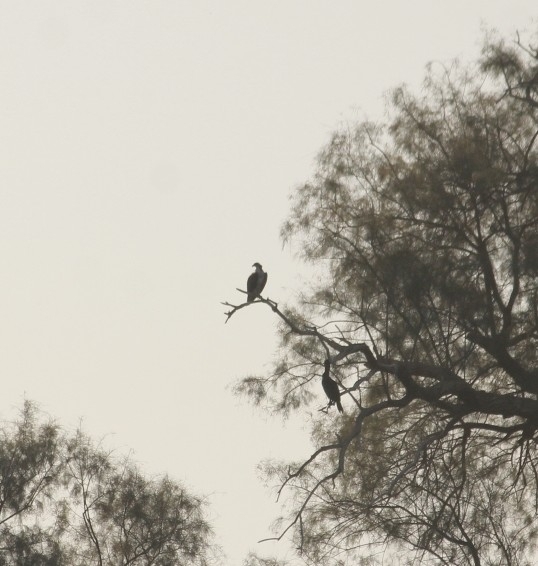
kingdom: Animalia
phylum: Chordata
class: Aves
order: Accipitriformes
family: Pandionidae
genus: Pandion
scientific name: Pandion haliaetus
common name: Osprey
